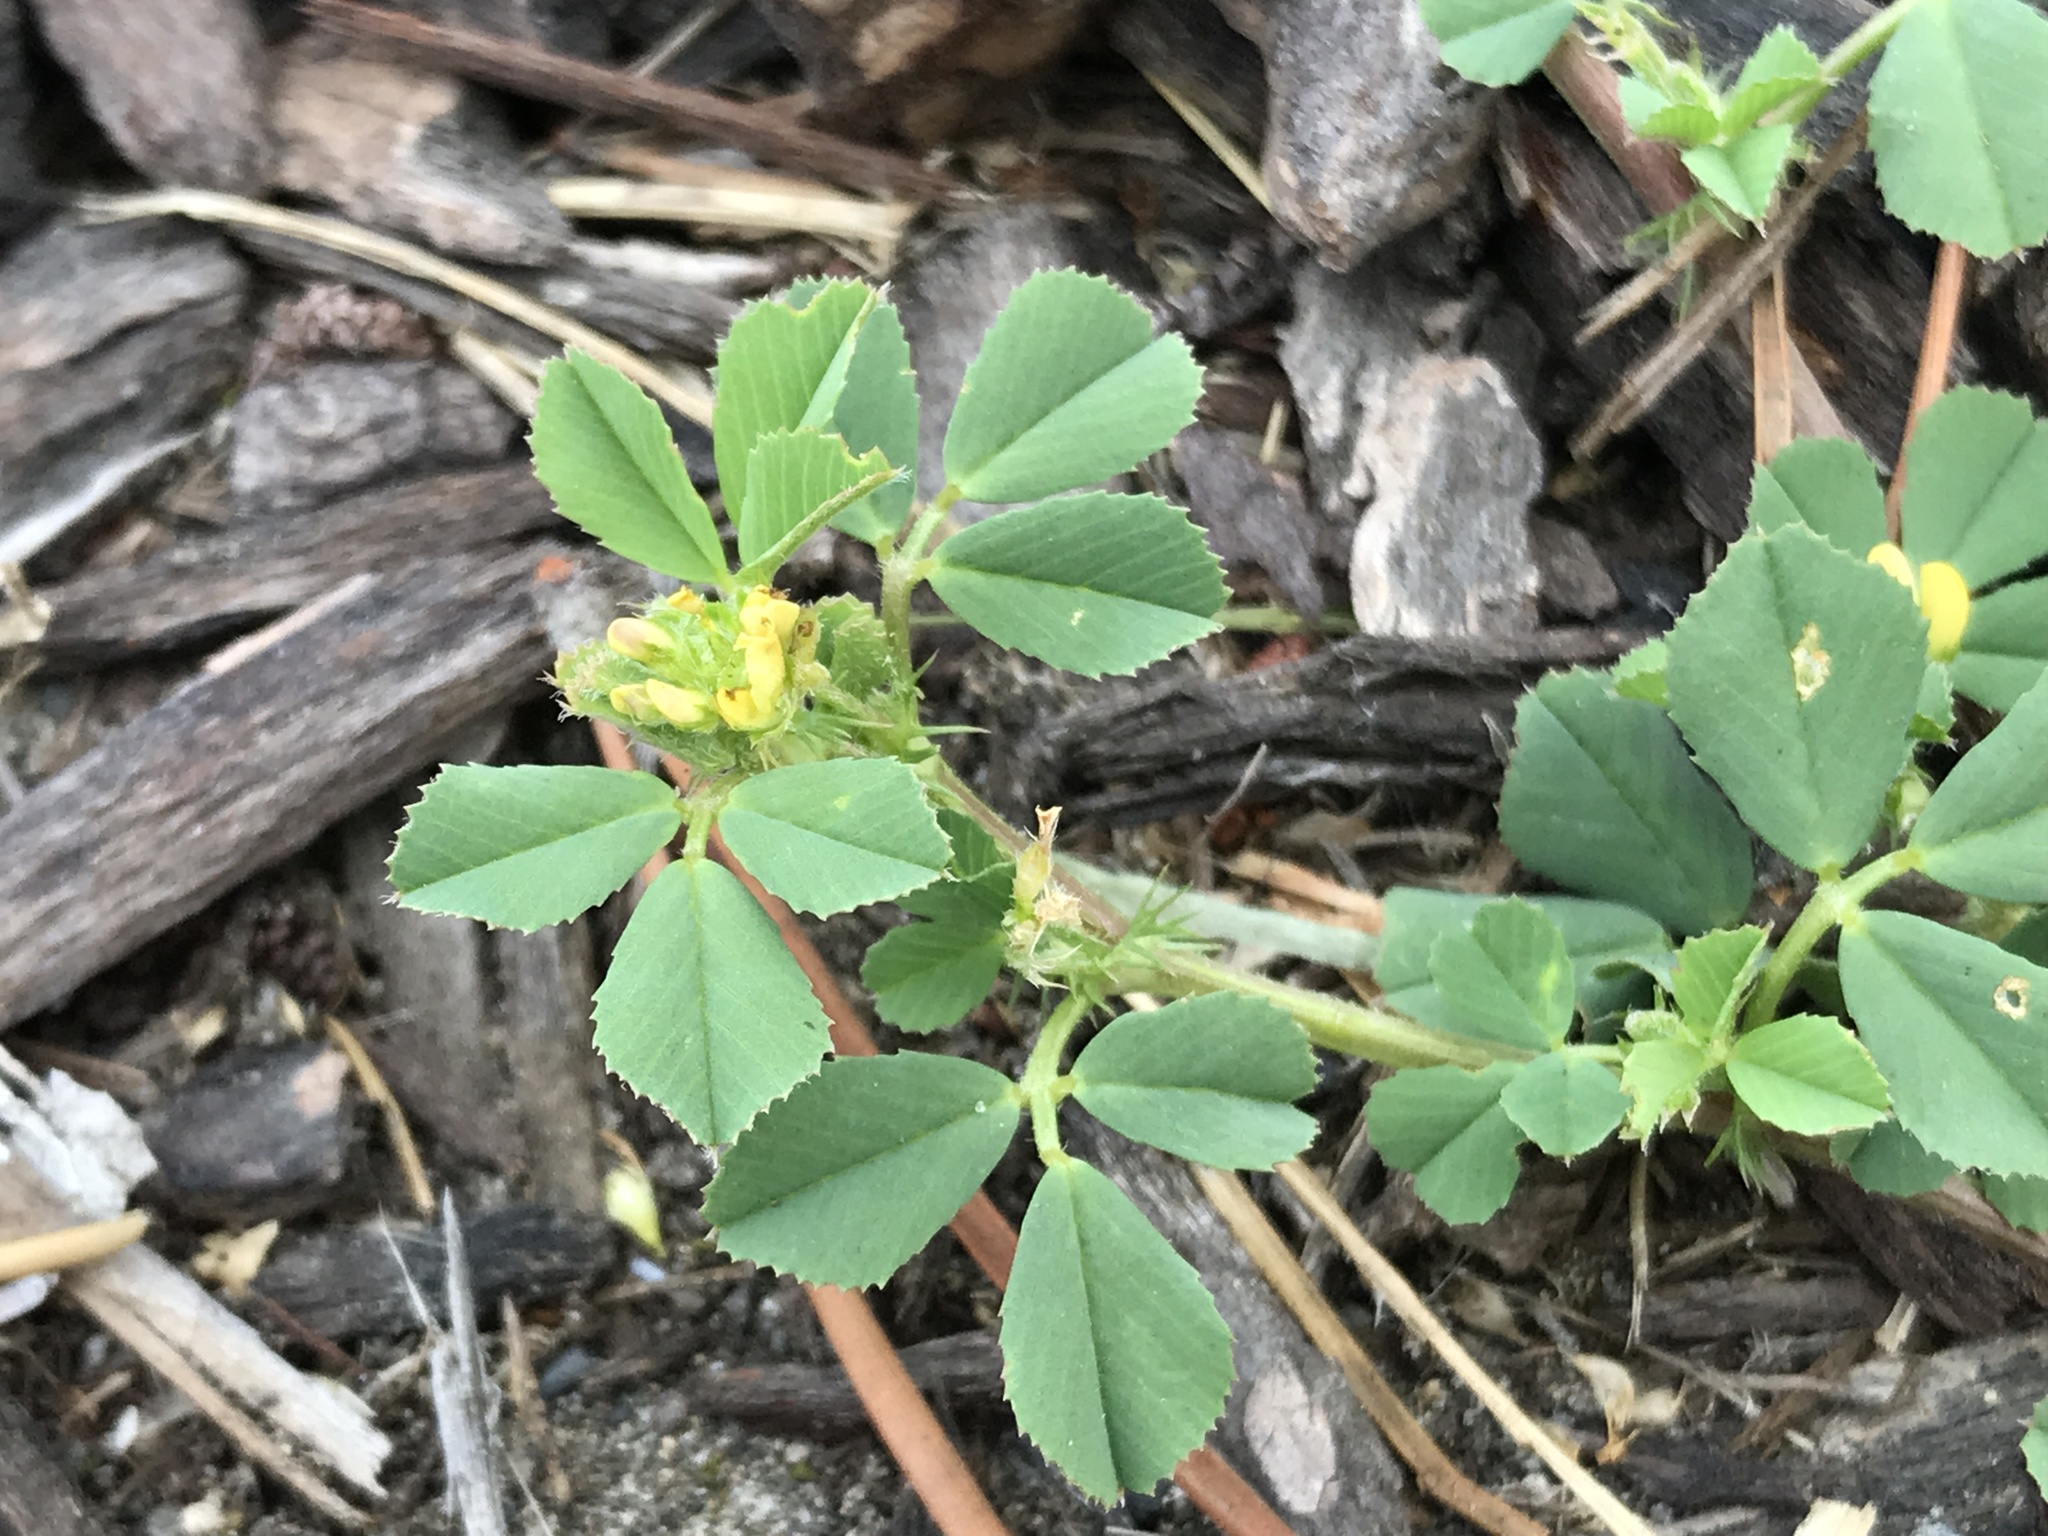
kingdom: Plantae
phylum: Tracheophyta
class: Magnoliopsida
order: Fabales
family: Fabaceae
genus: Medicago
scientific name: Medicago praecox
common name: Early medick
